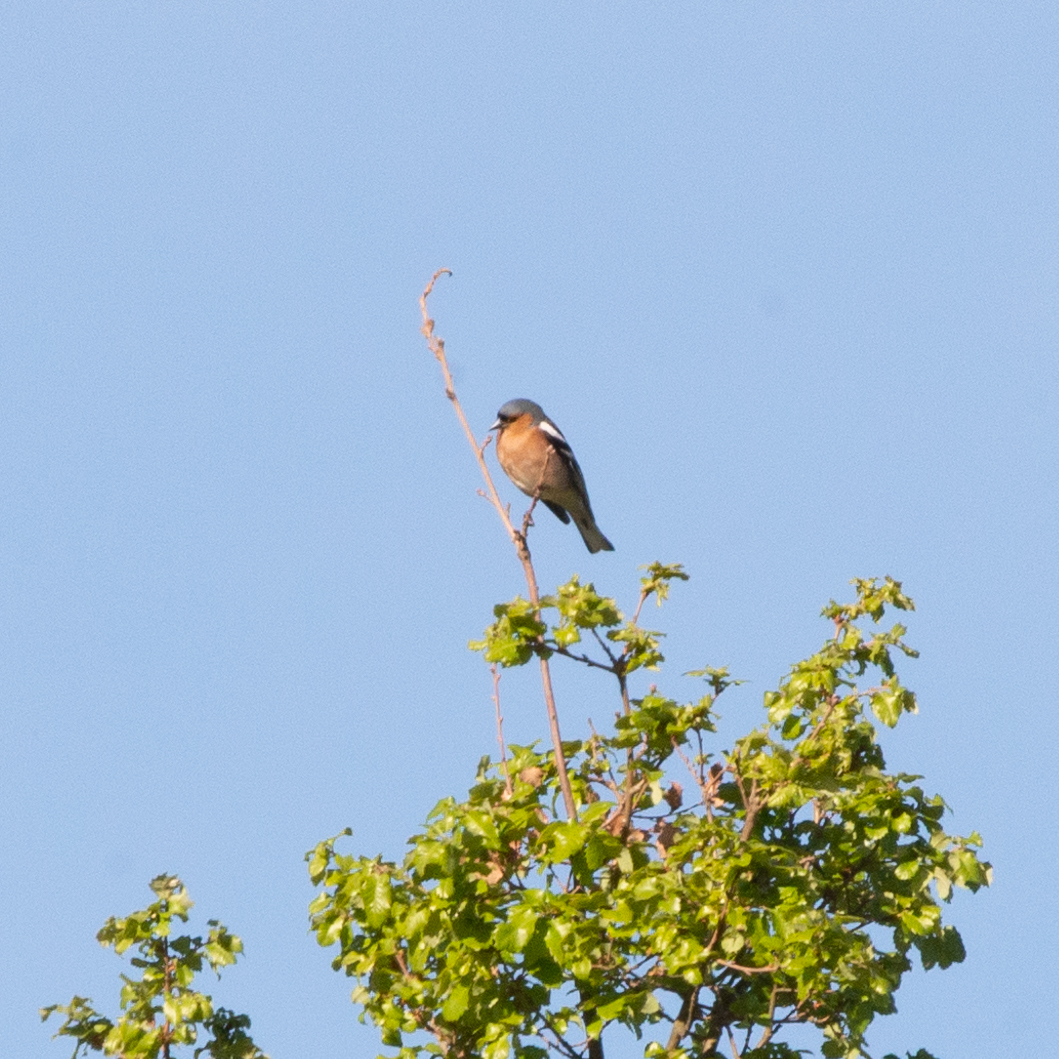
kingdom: Animalia
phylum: Chordata
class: Aves
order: Passeriformes
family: Fringillidae
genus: Fringilla
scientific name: Fringilla coelebs
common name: Common chaffinch
